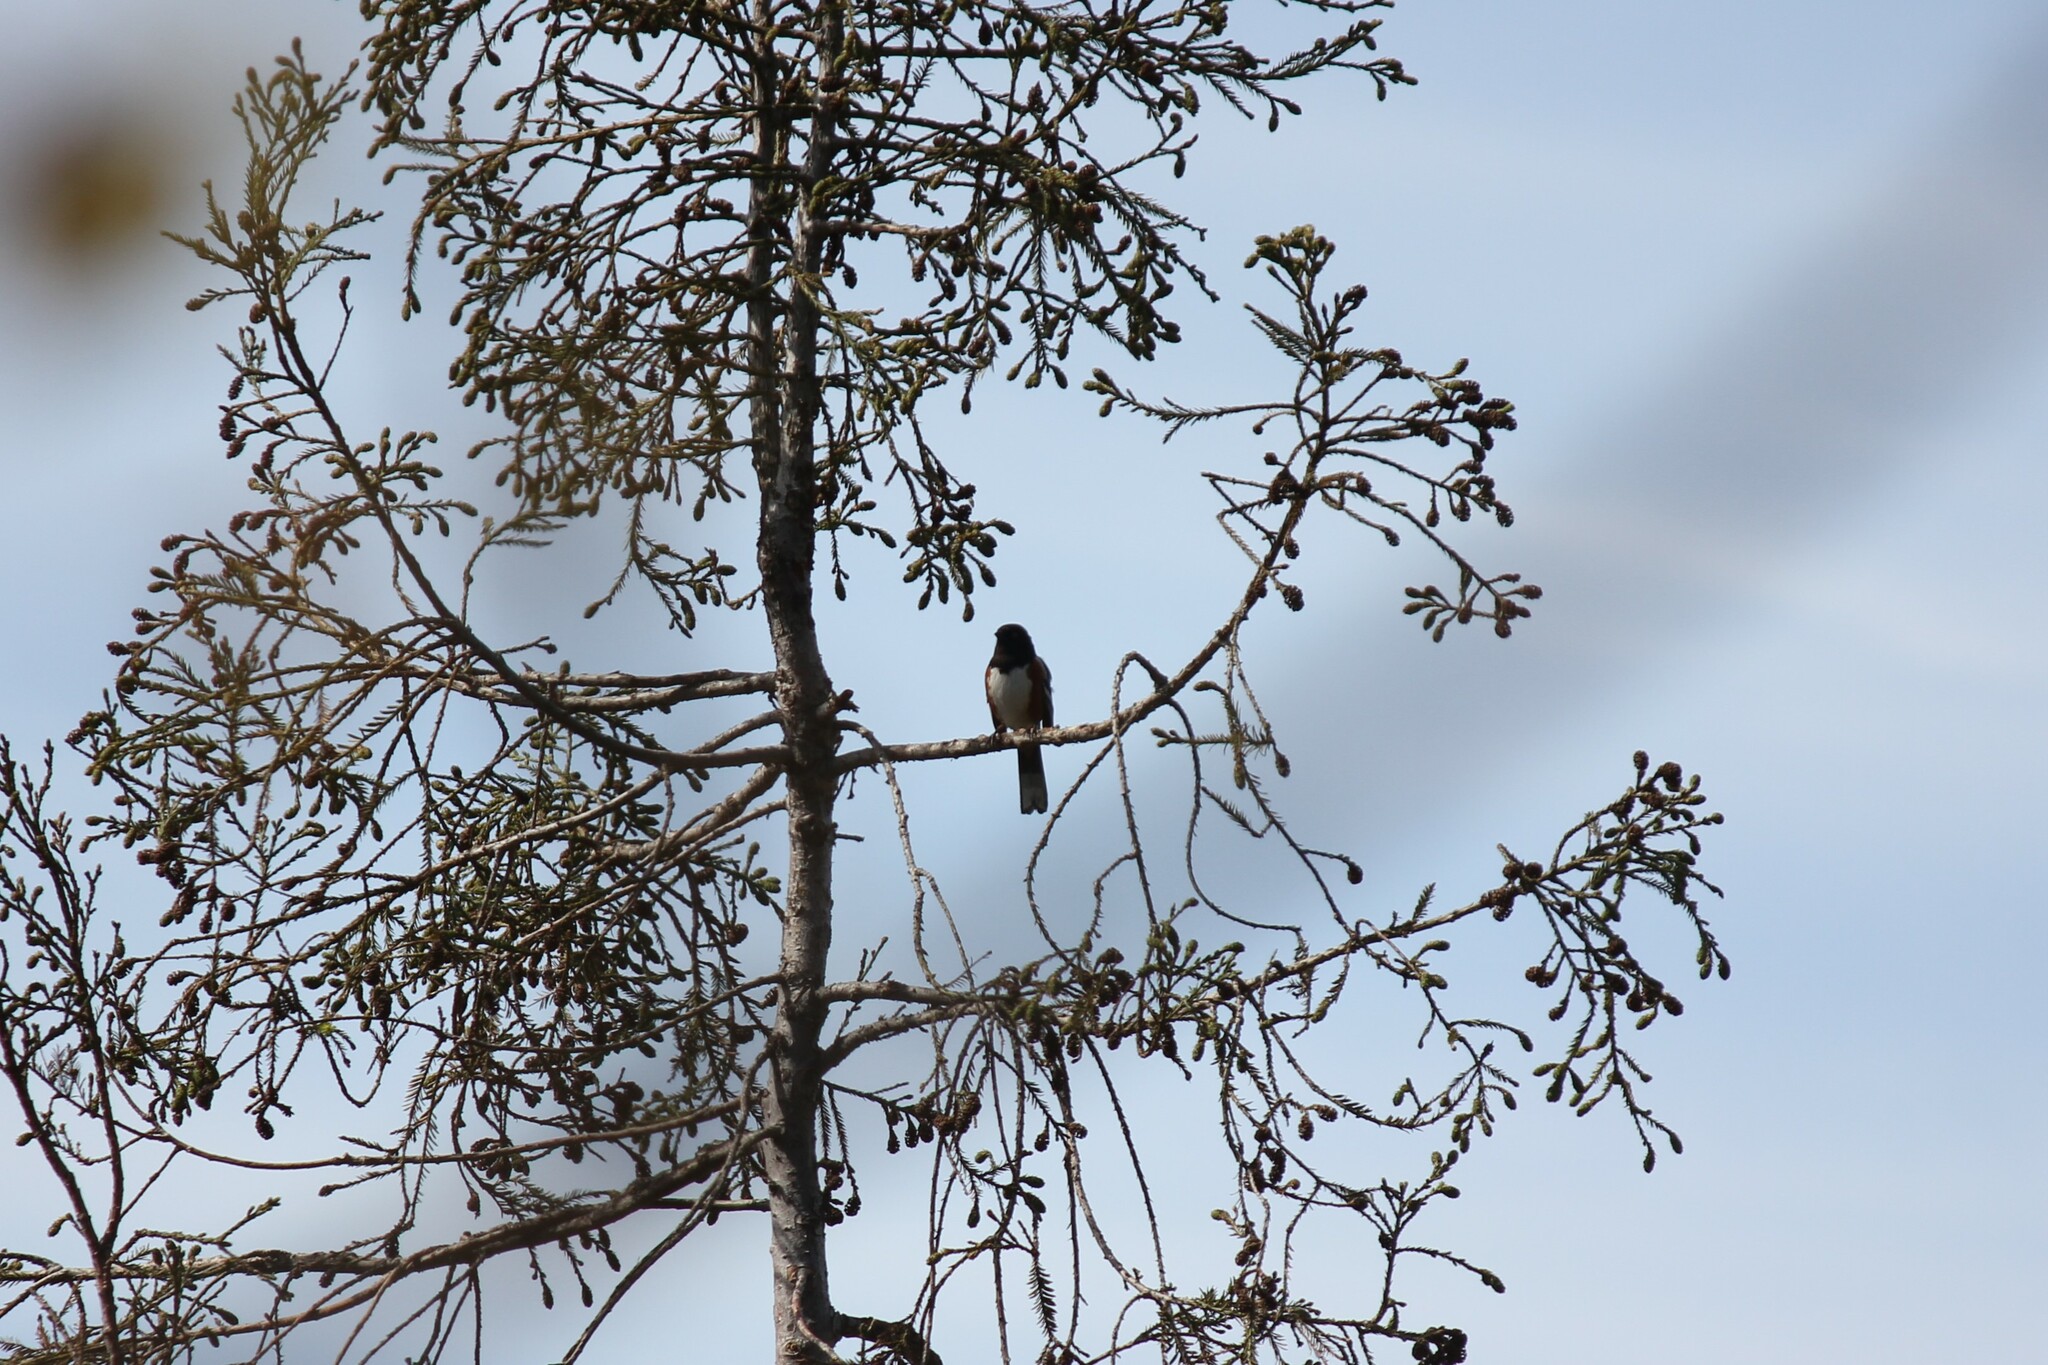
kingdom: Animalia
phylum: Chordata
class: Aves
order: Passeriformes
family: Passerellidae
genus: Pipilo
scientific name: Pipilo maculatus
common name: Spotted towhee
